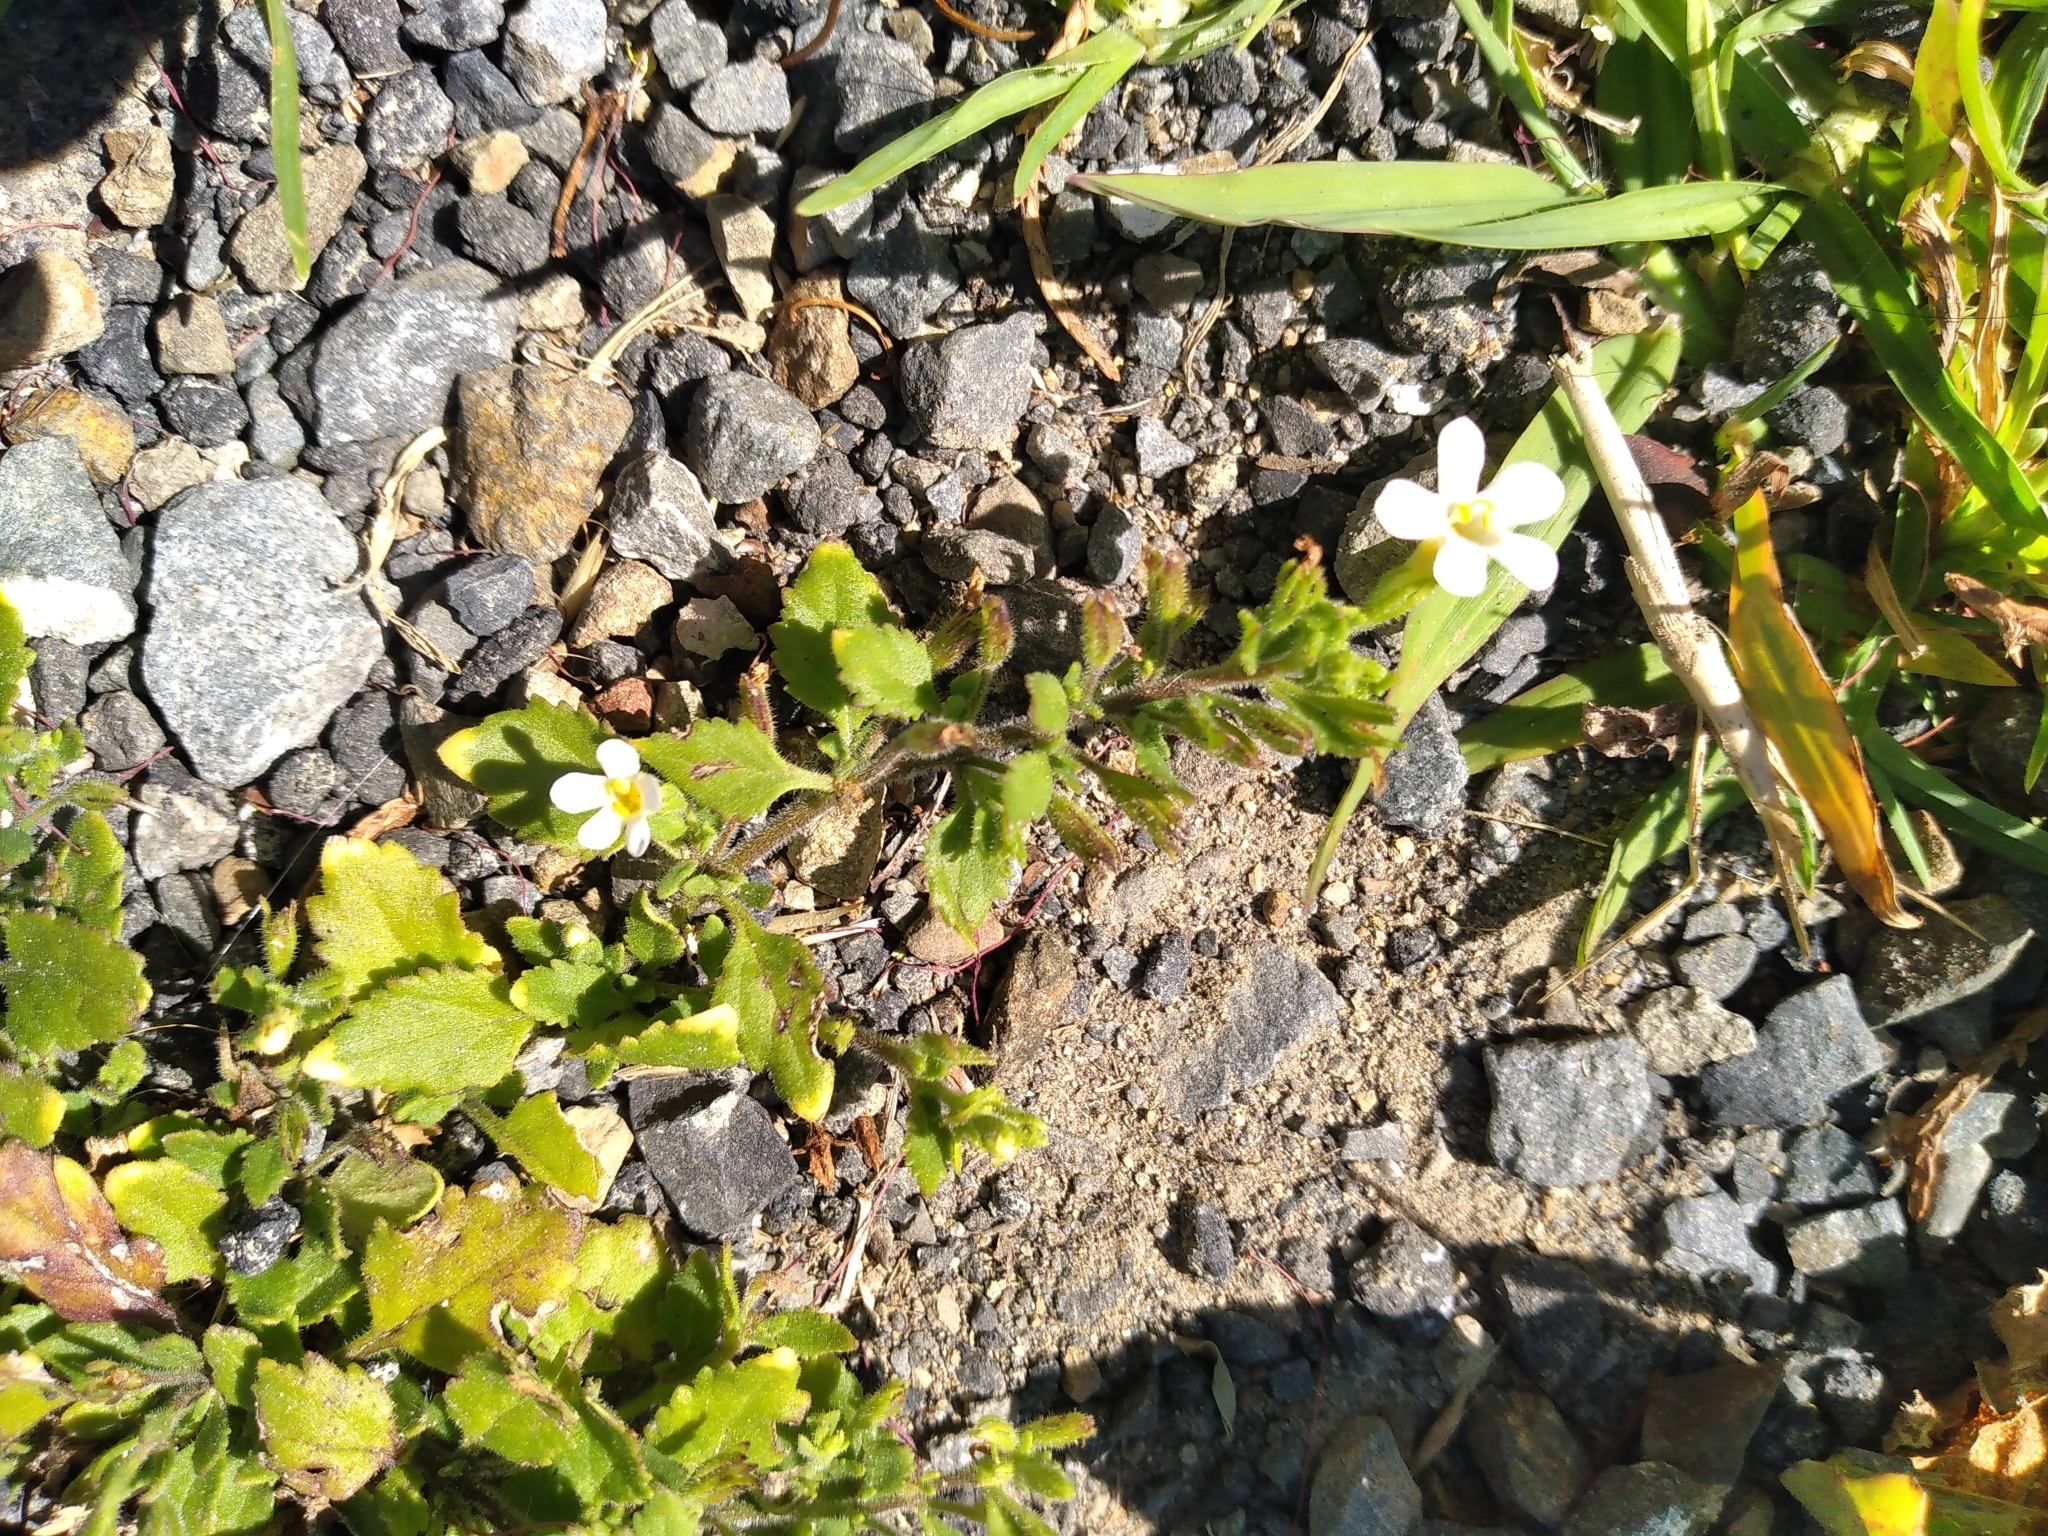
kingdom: Plantae
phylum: Tracheophyta
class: Magnoliopsida
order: Lamiales
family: Scrophulariaceae
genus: Chaenostoma
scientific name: Chaenostoma cordatum
